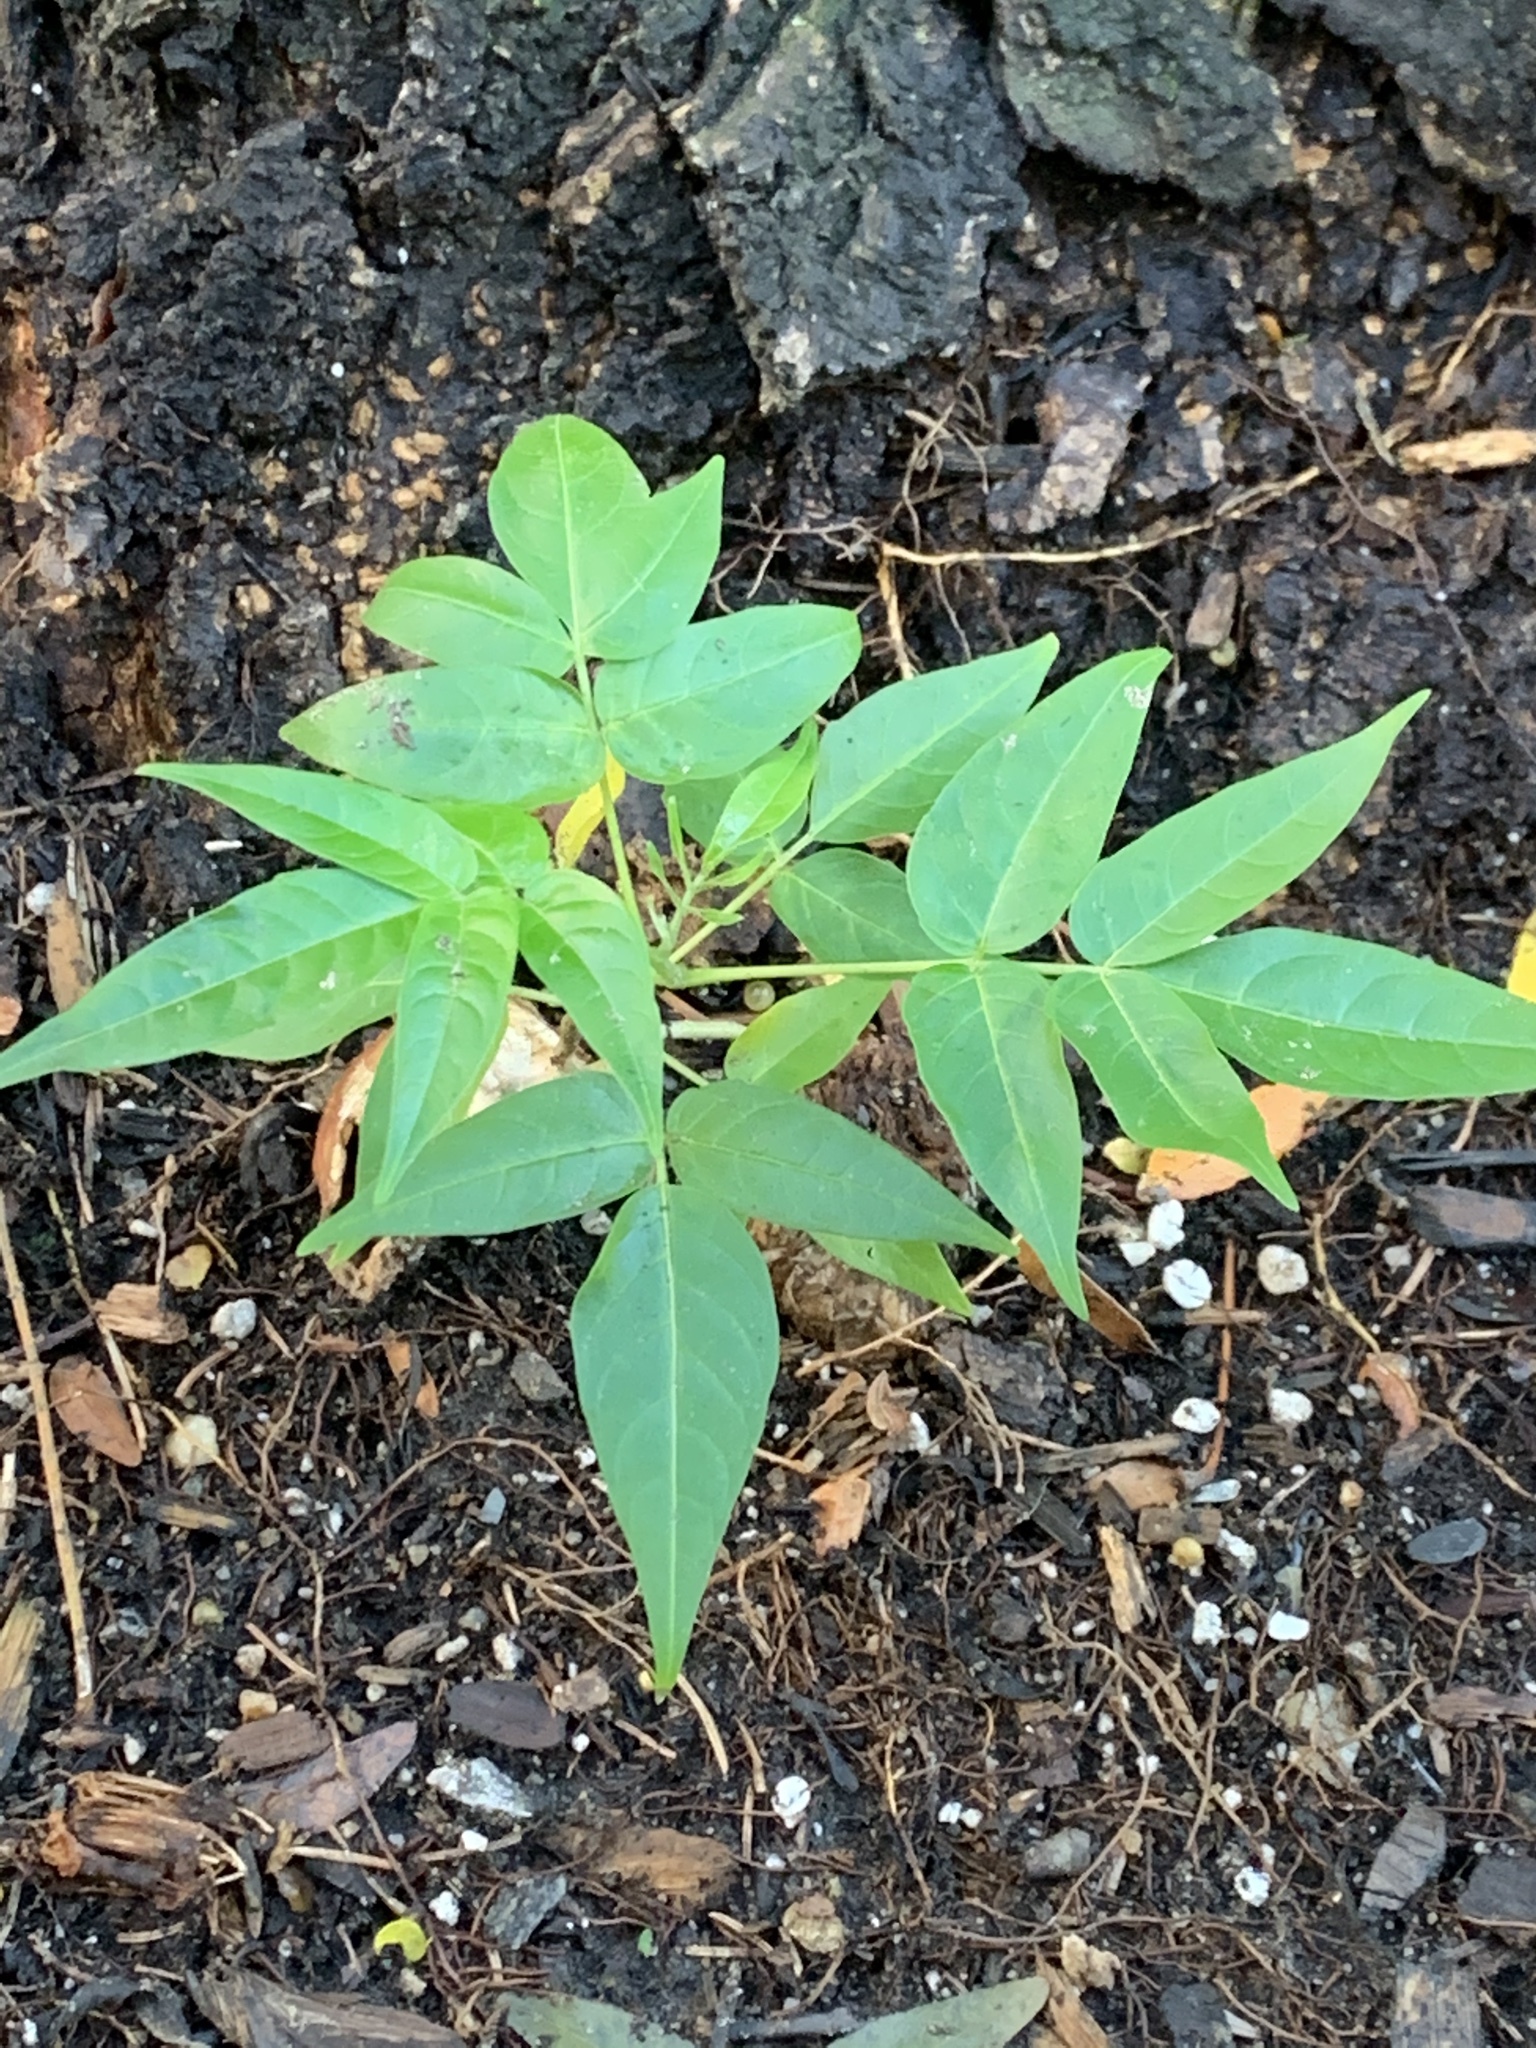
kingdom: Plantae
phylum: Tracheophyta
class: Magnoliopsida
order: Sapindales
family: Simaroubaceae
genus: Ailanthus
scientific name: Ailanthus altissima
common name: Tree-of-heaven
